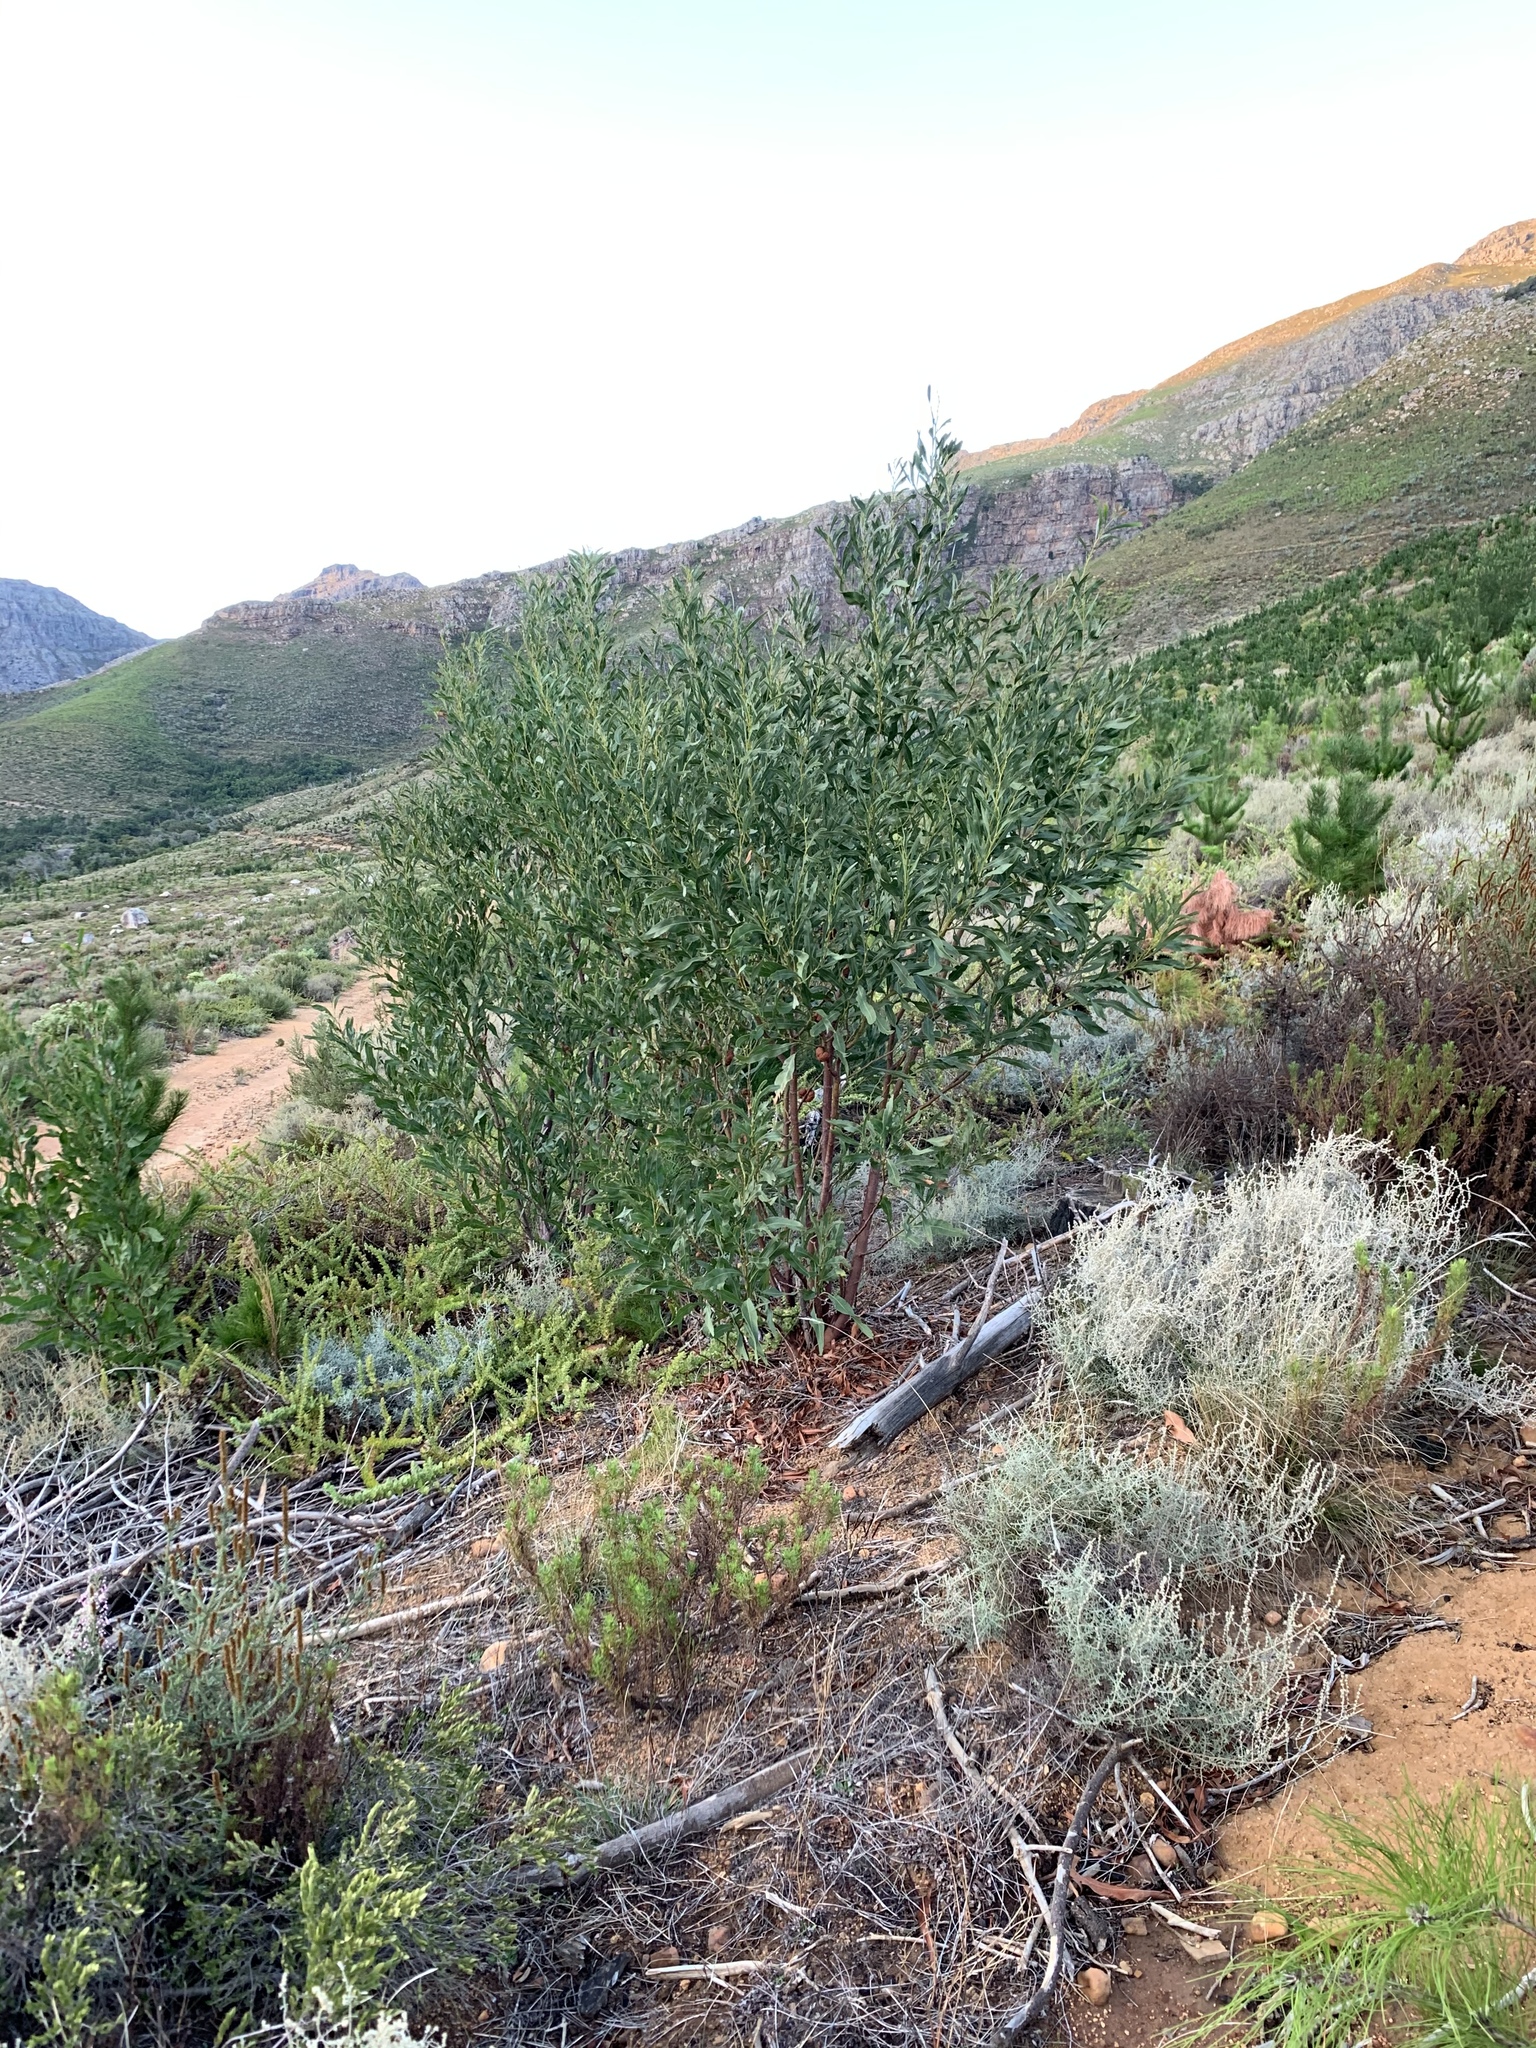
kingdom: Plantae
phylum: Tracheophyta
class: Magnoliopsida
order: Fabales
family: Fabaceae
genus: Acacia
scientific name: Acacia saligna
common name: Orange wattle
